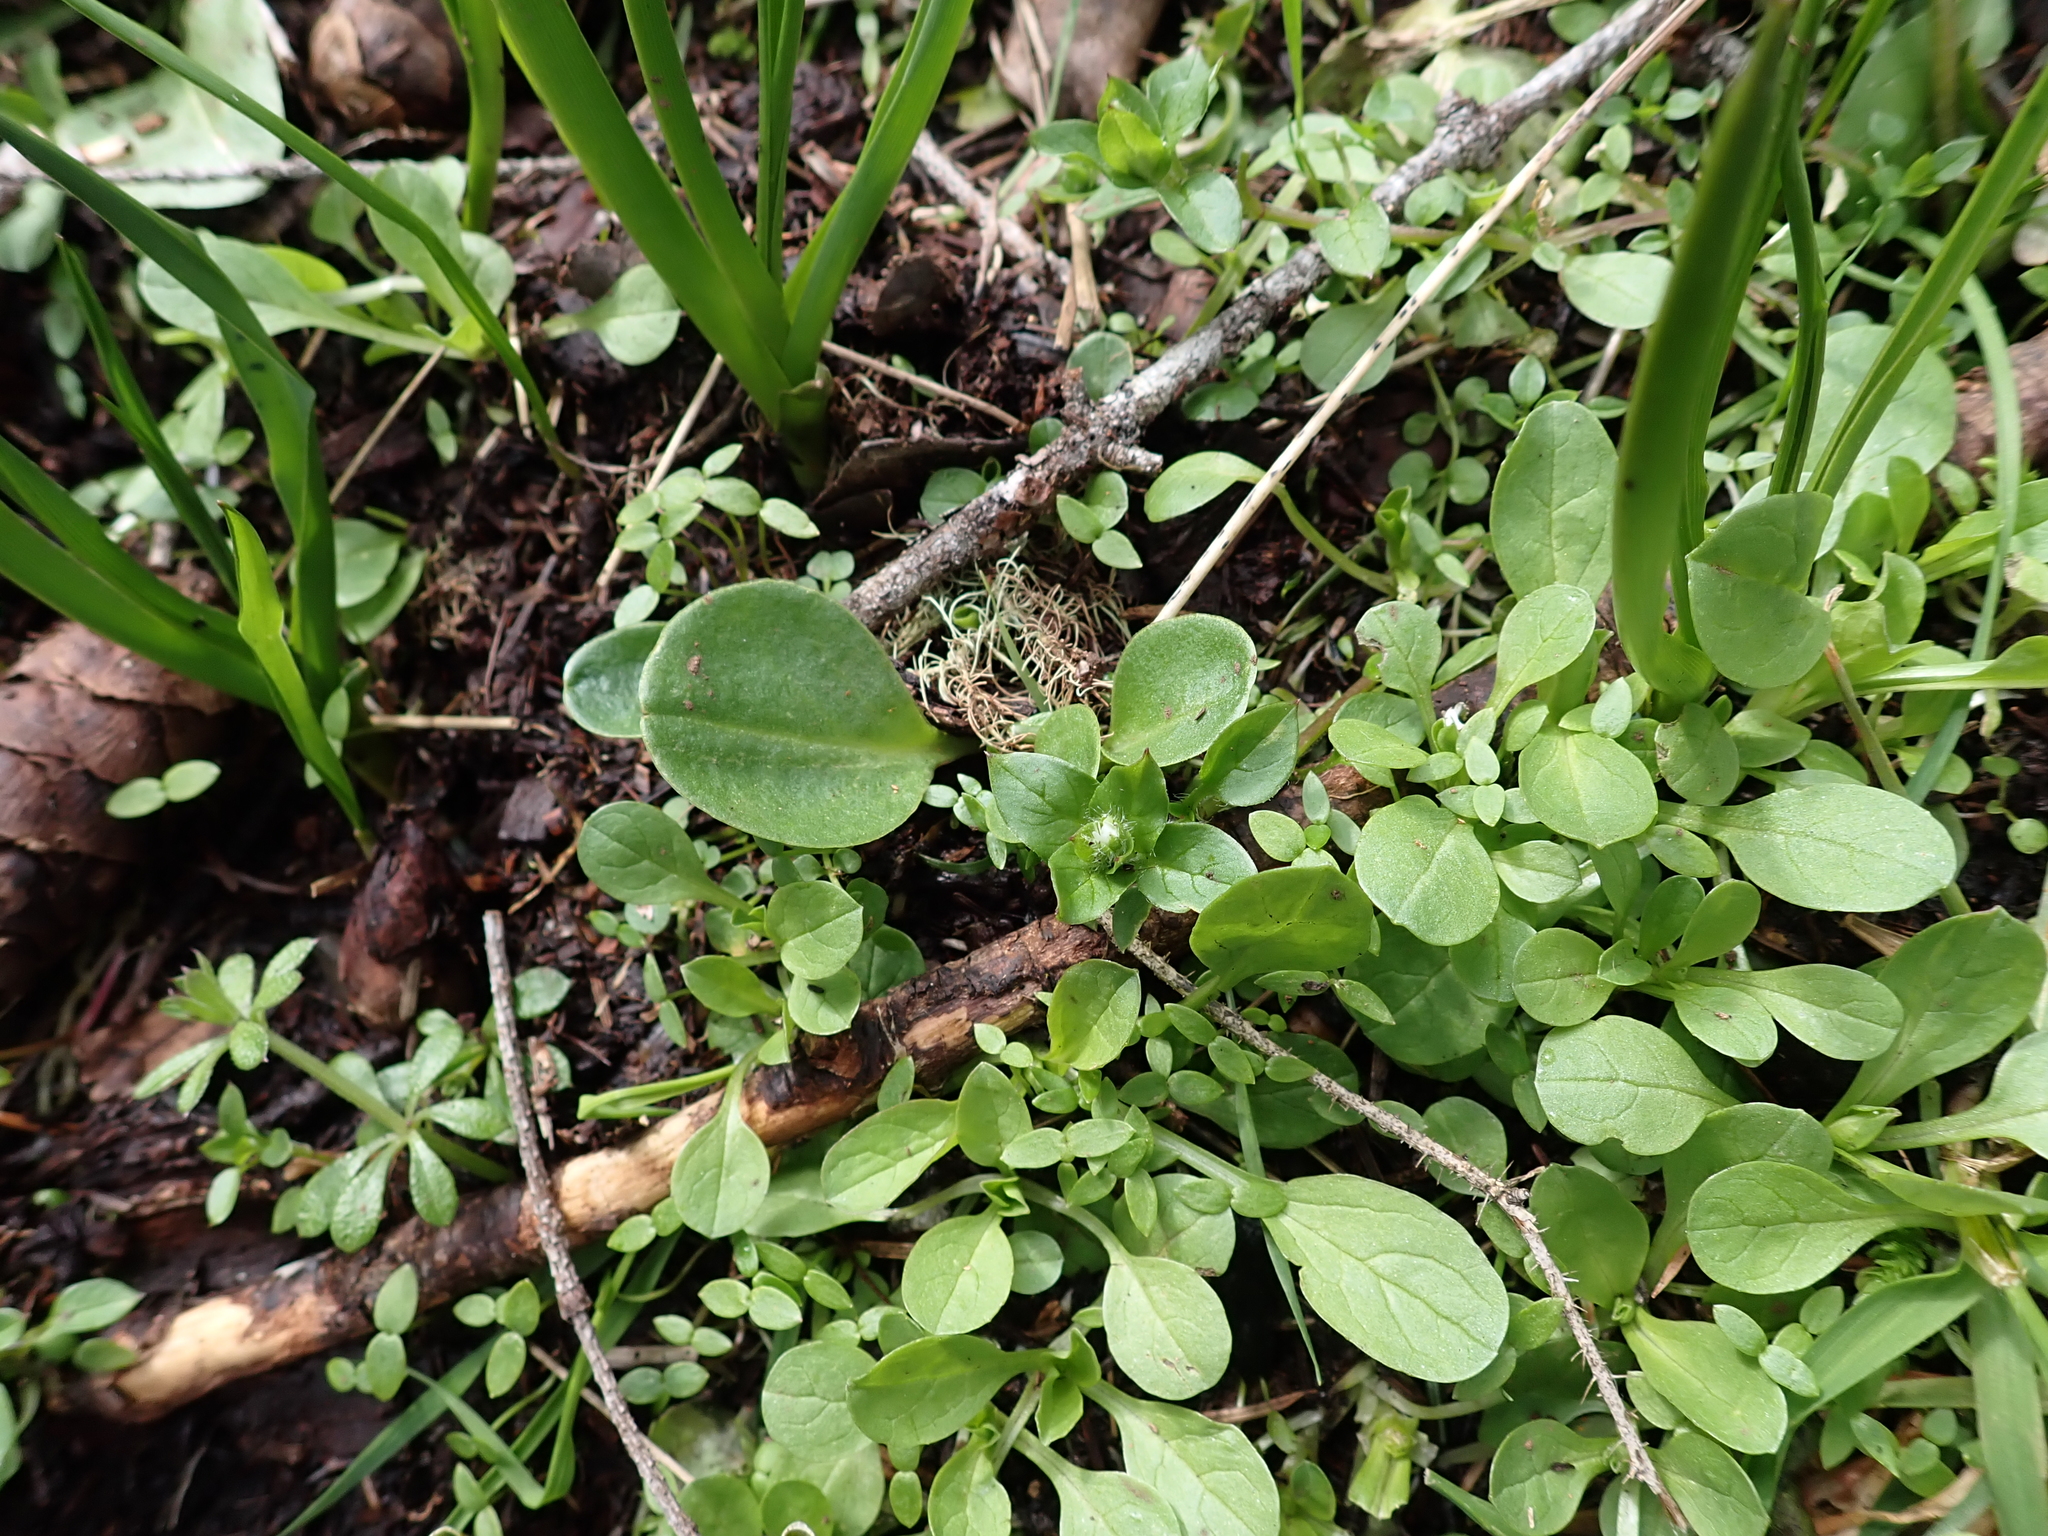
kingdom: Plantae
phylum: Tracheophyta
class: Magnoliopsida
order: Ericales
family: Primulaceae
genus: Dodecatheon
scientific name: Dodecatheon hendersonii
